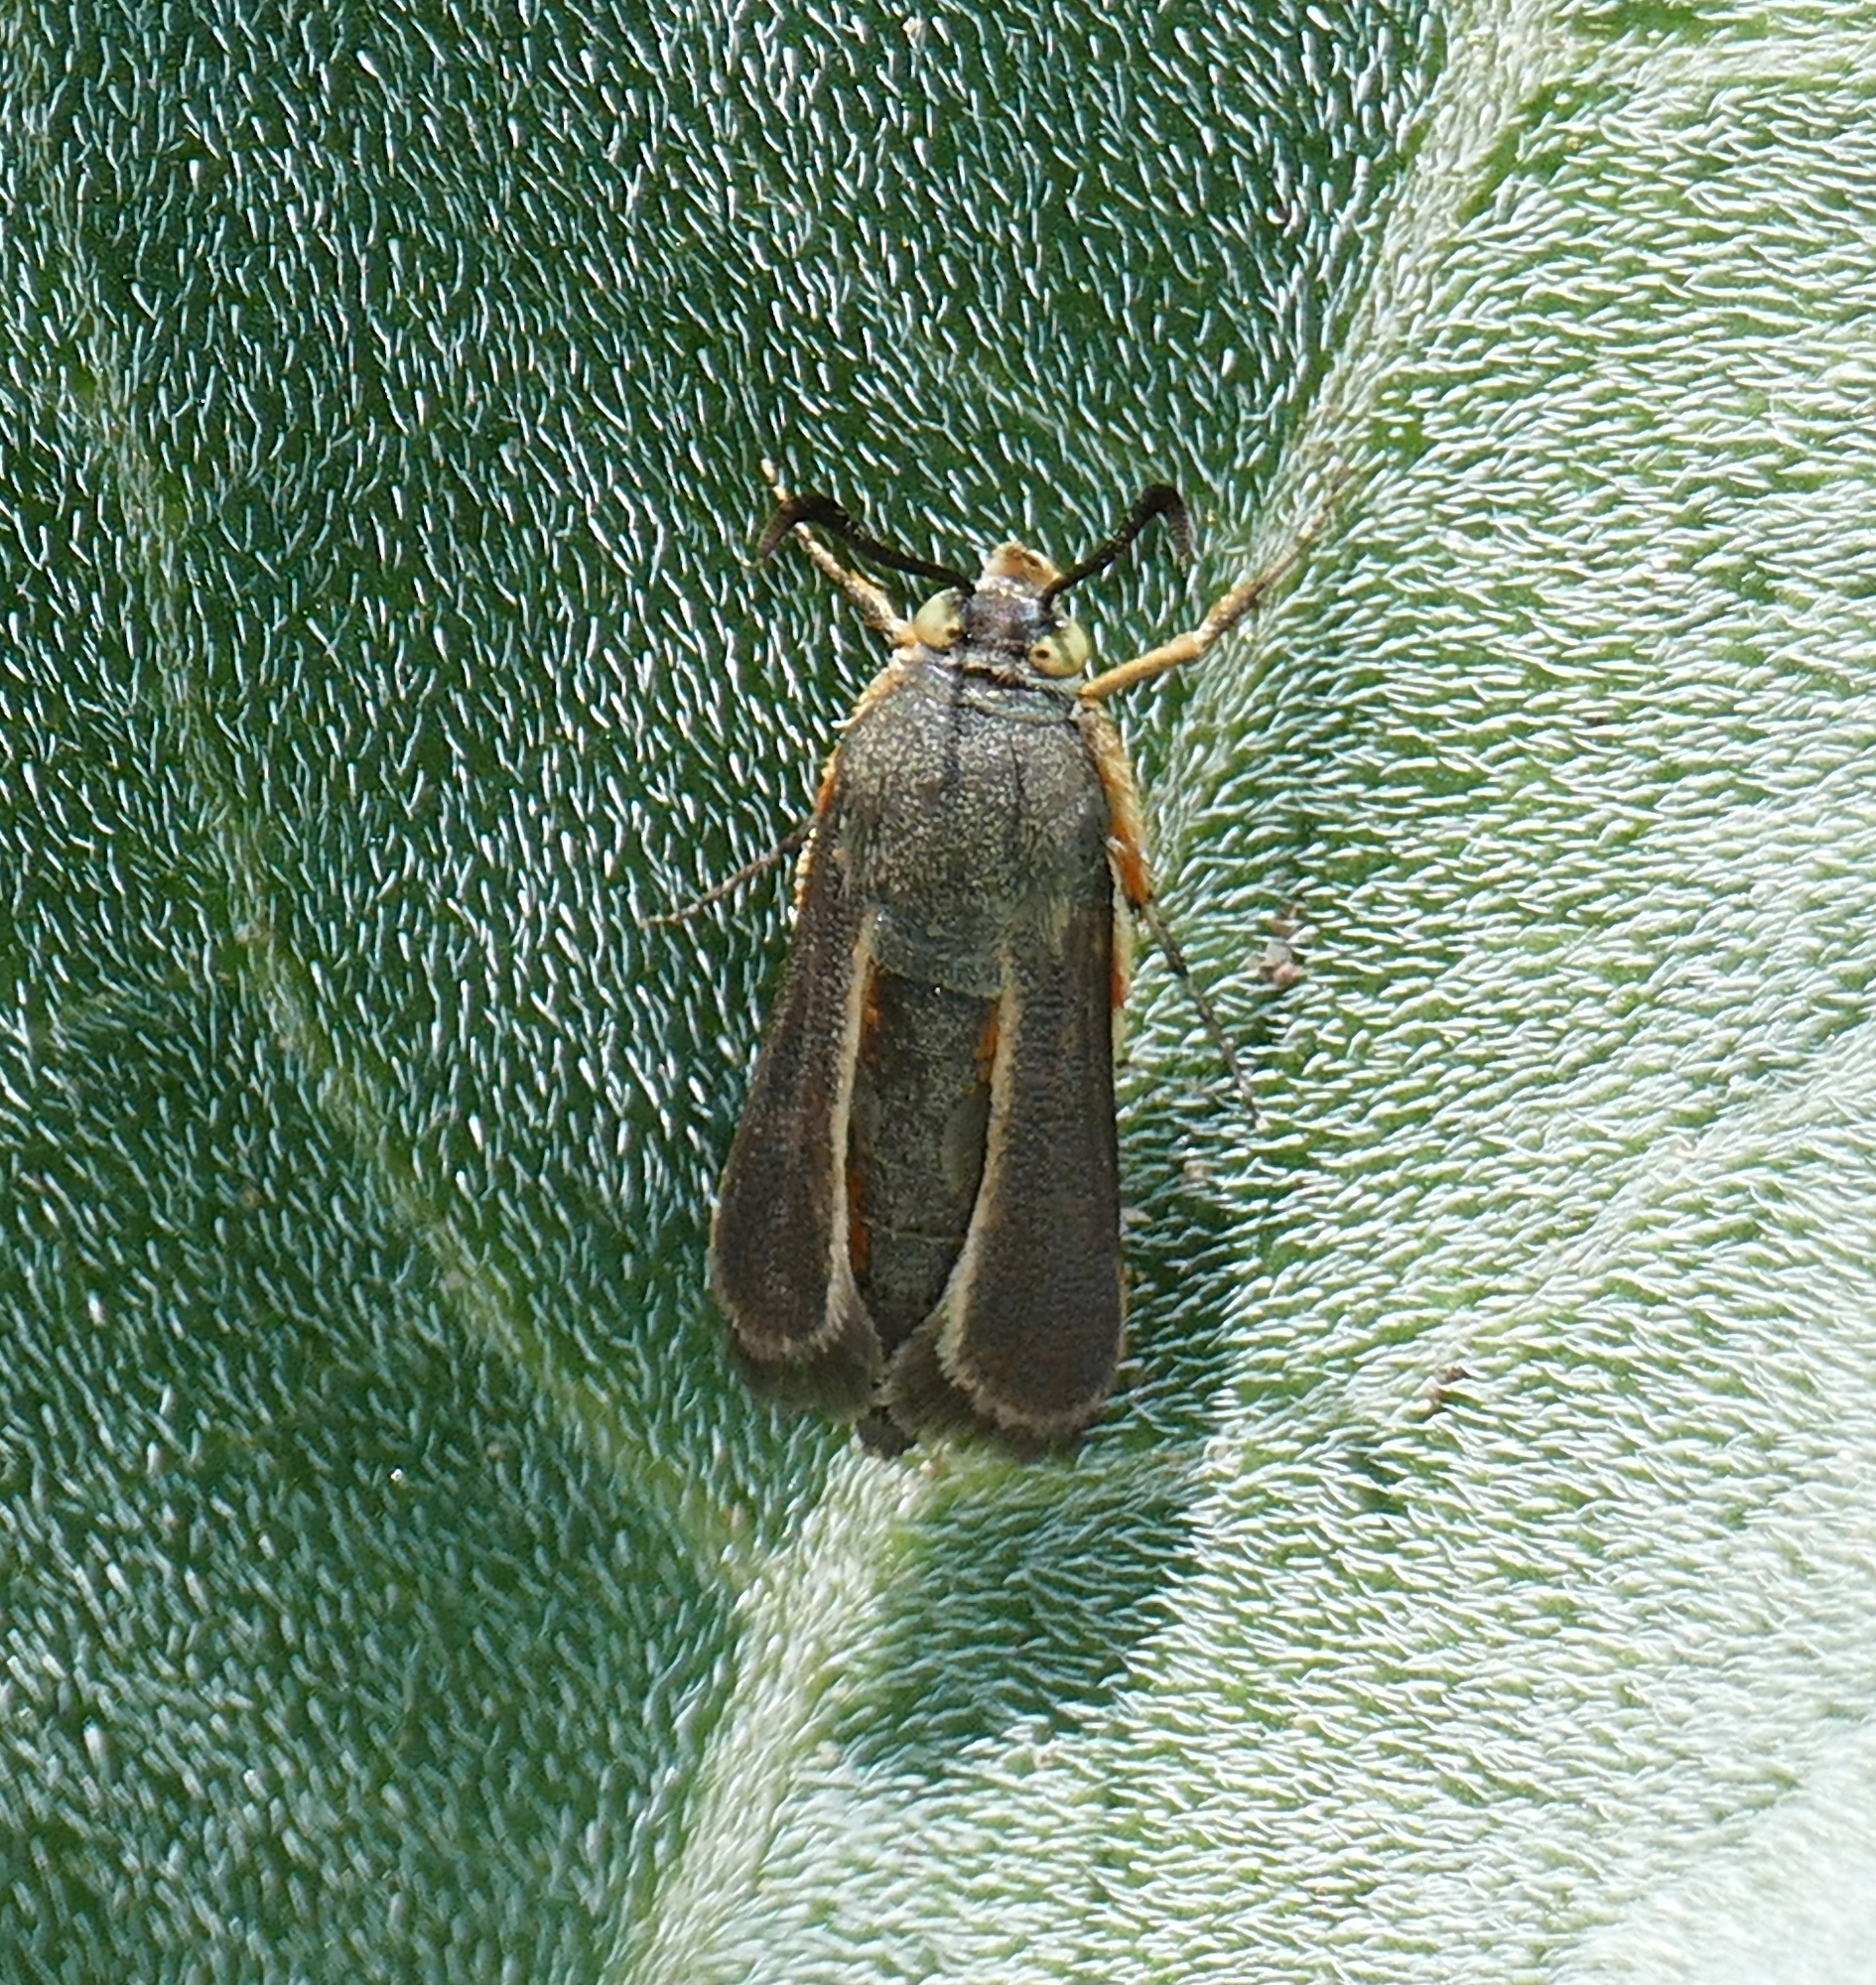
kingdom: Animalia
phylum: Arthropoda
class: Insecta
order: Lepidoptera
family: Sesiidae
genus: Eichlinia
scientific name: Eichlinia snowii
